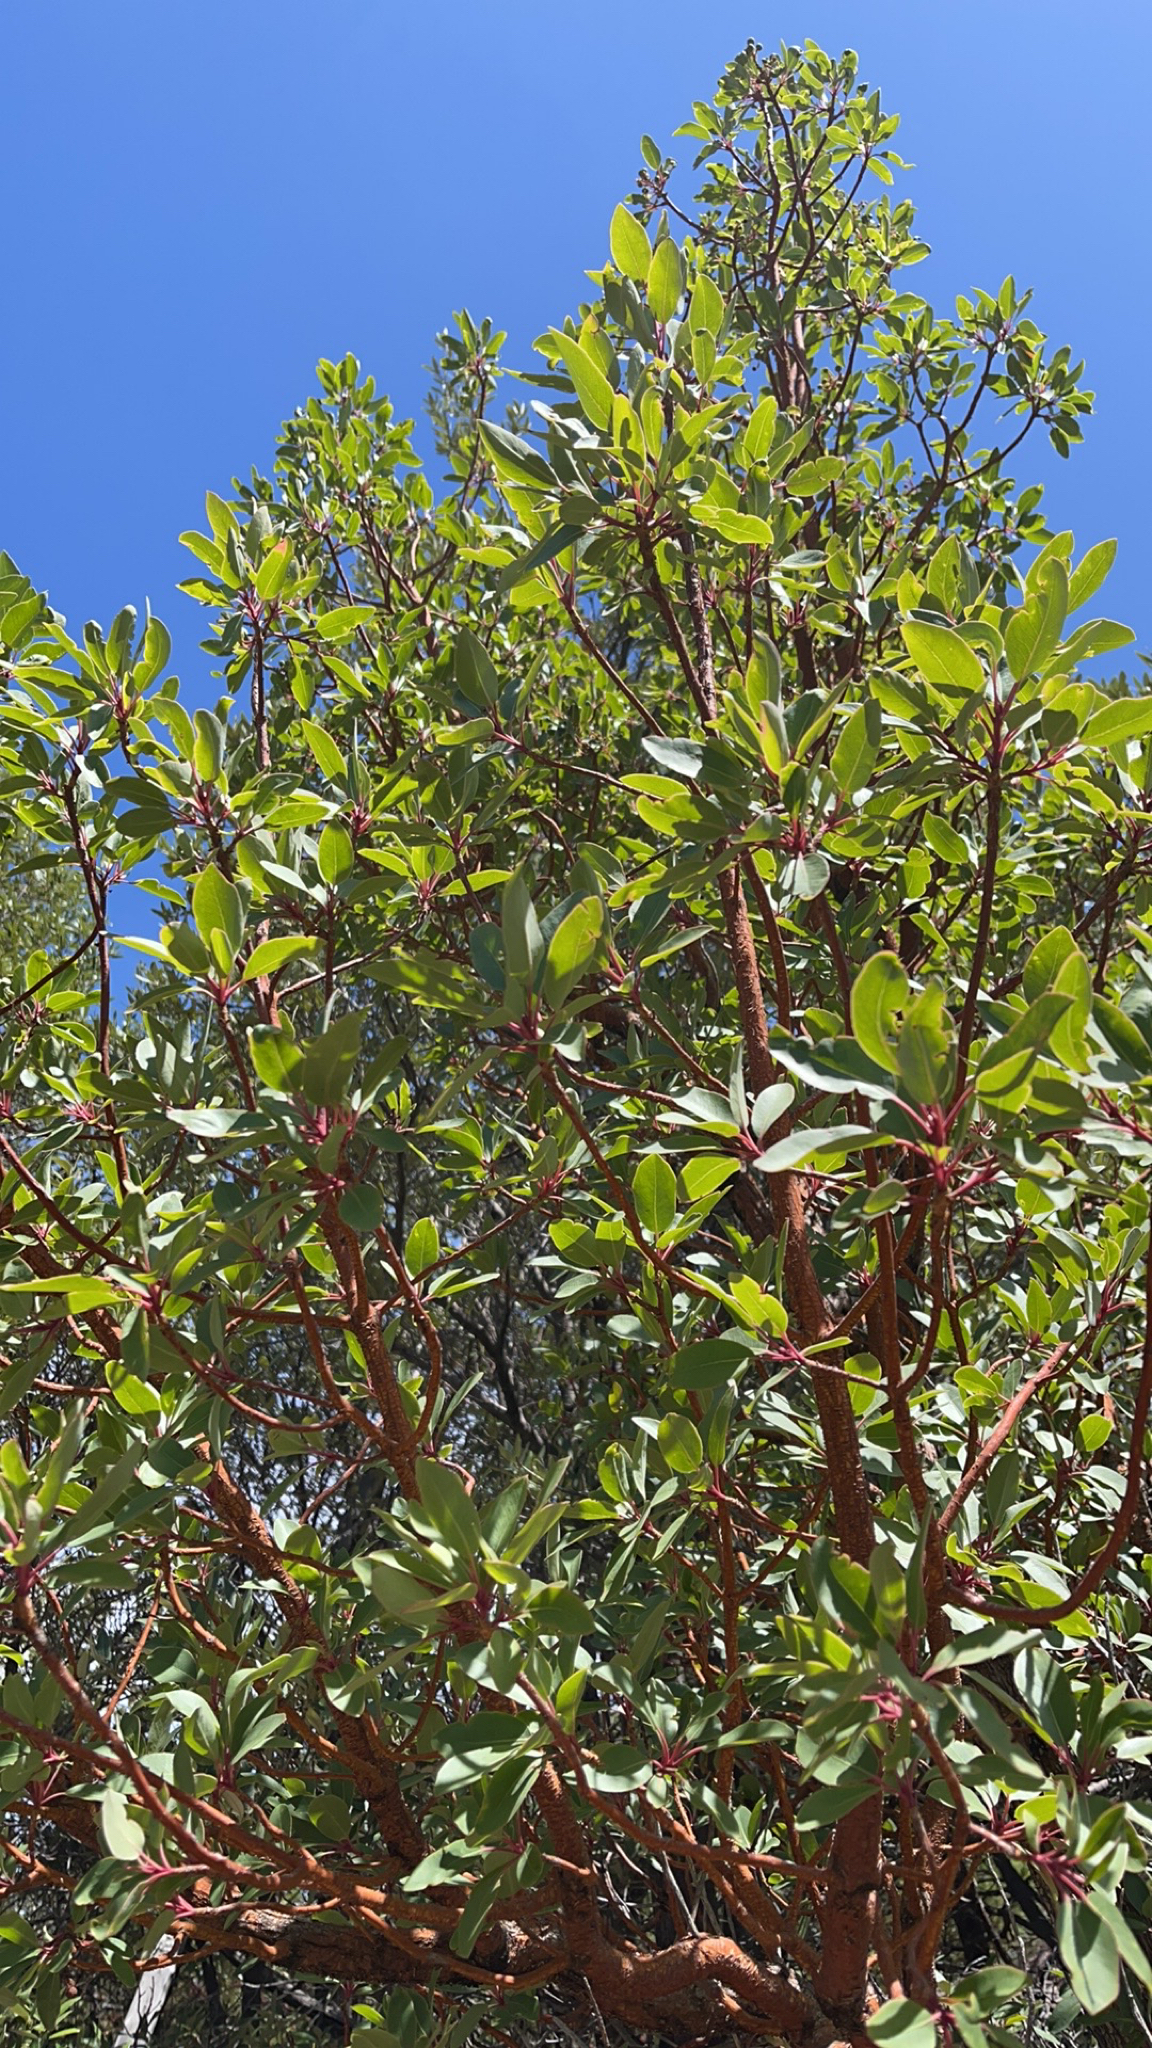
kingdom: Plantae
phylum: Tracheophyta
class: Magnoliopsida
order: Ericales
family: Ericaceae
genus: Arbutus
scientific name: Arbutus arizonica
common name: Arizona madrone
